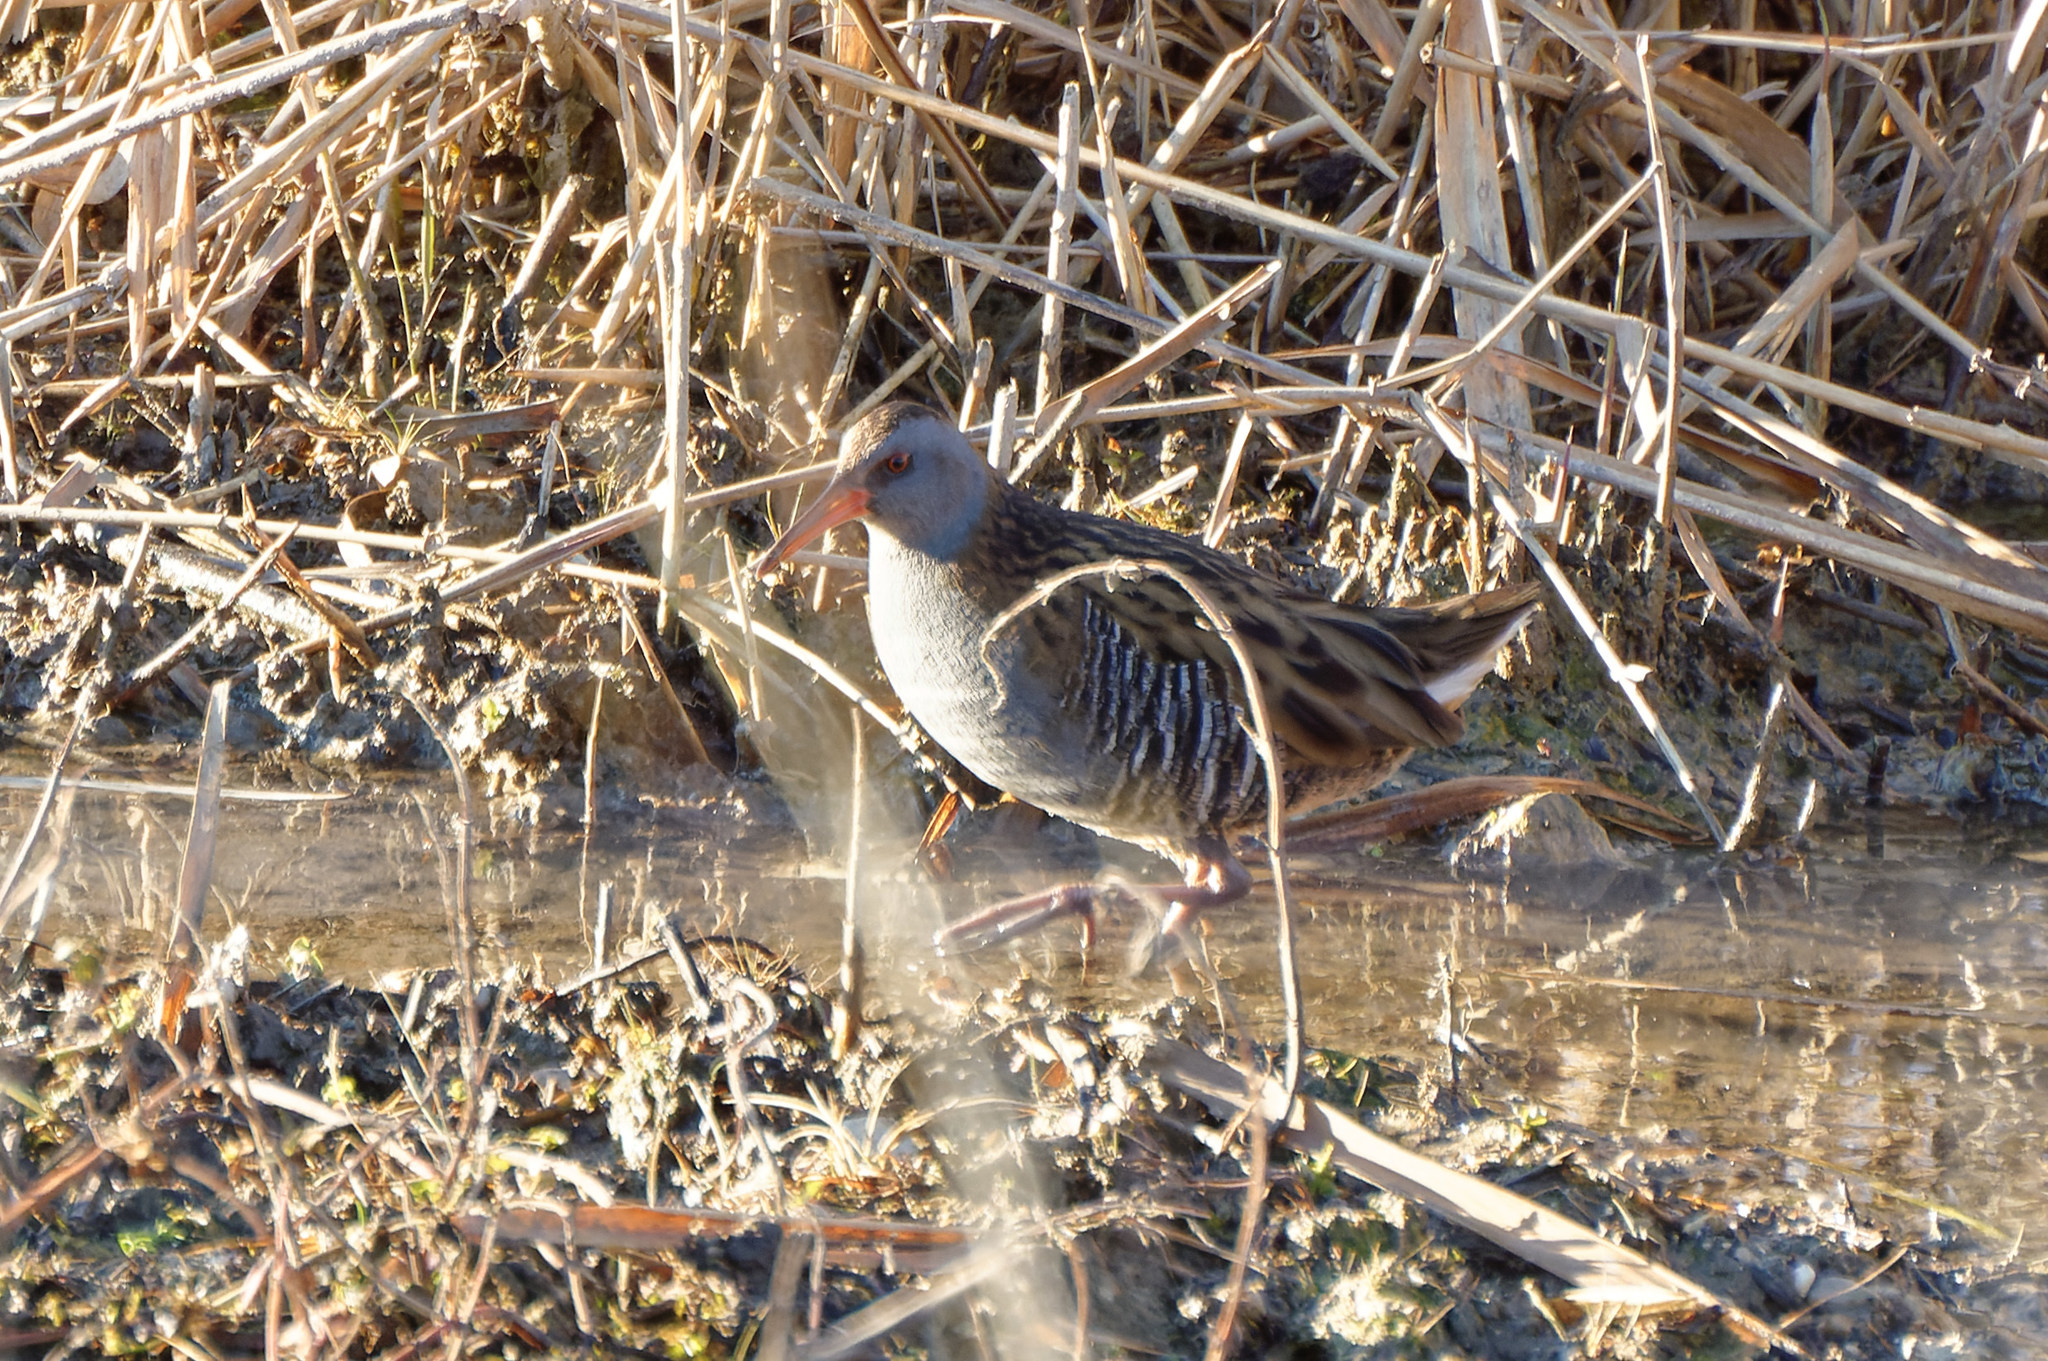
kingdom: Animalia
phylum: Chordata
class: Aves
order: Gruiformes
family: Rallidae
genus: Rallus
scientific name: Rallus aquaticus
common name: Water rail
